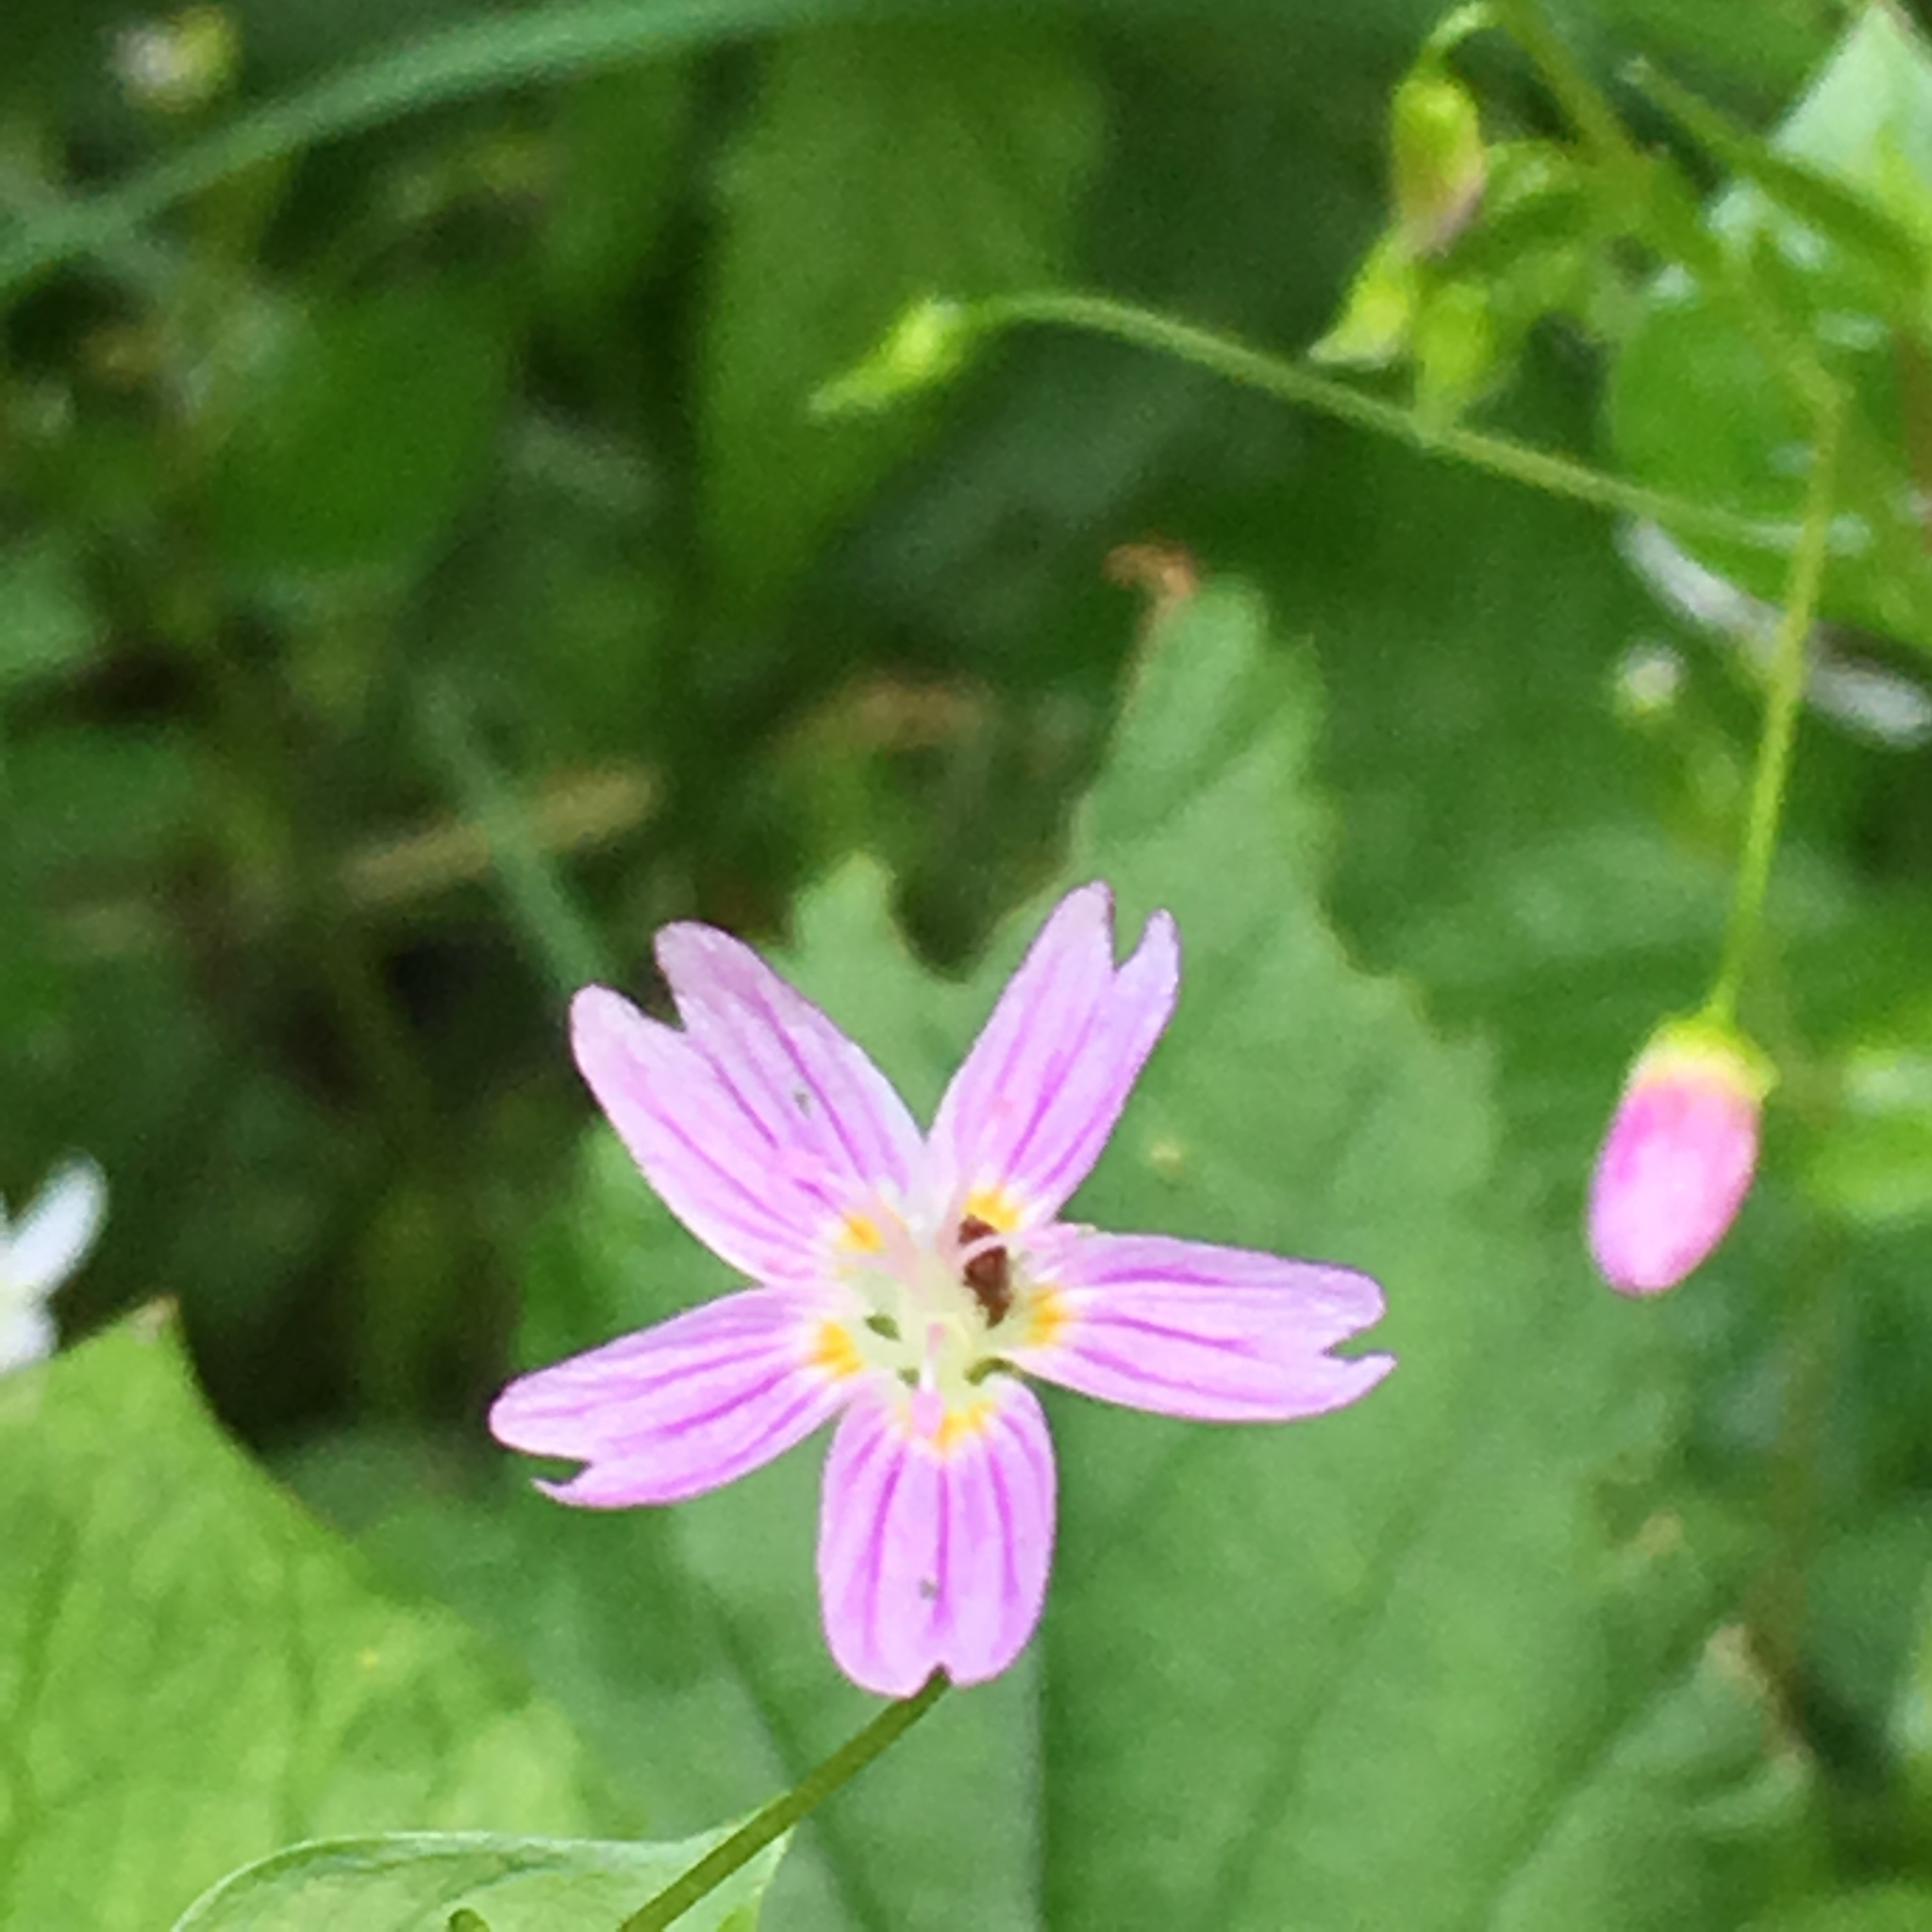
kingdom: Plantae
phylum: Tracheophyta
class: Magnoliopsida
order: Caryophyllales
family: Montiaceae
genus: Claytonia
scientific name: Claytonia sibirica
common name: Pink purslane
